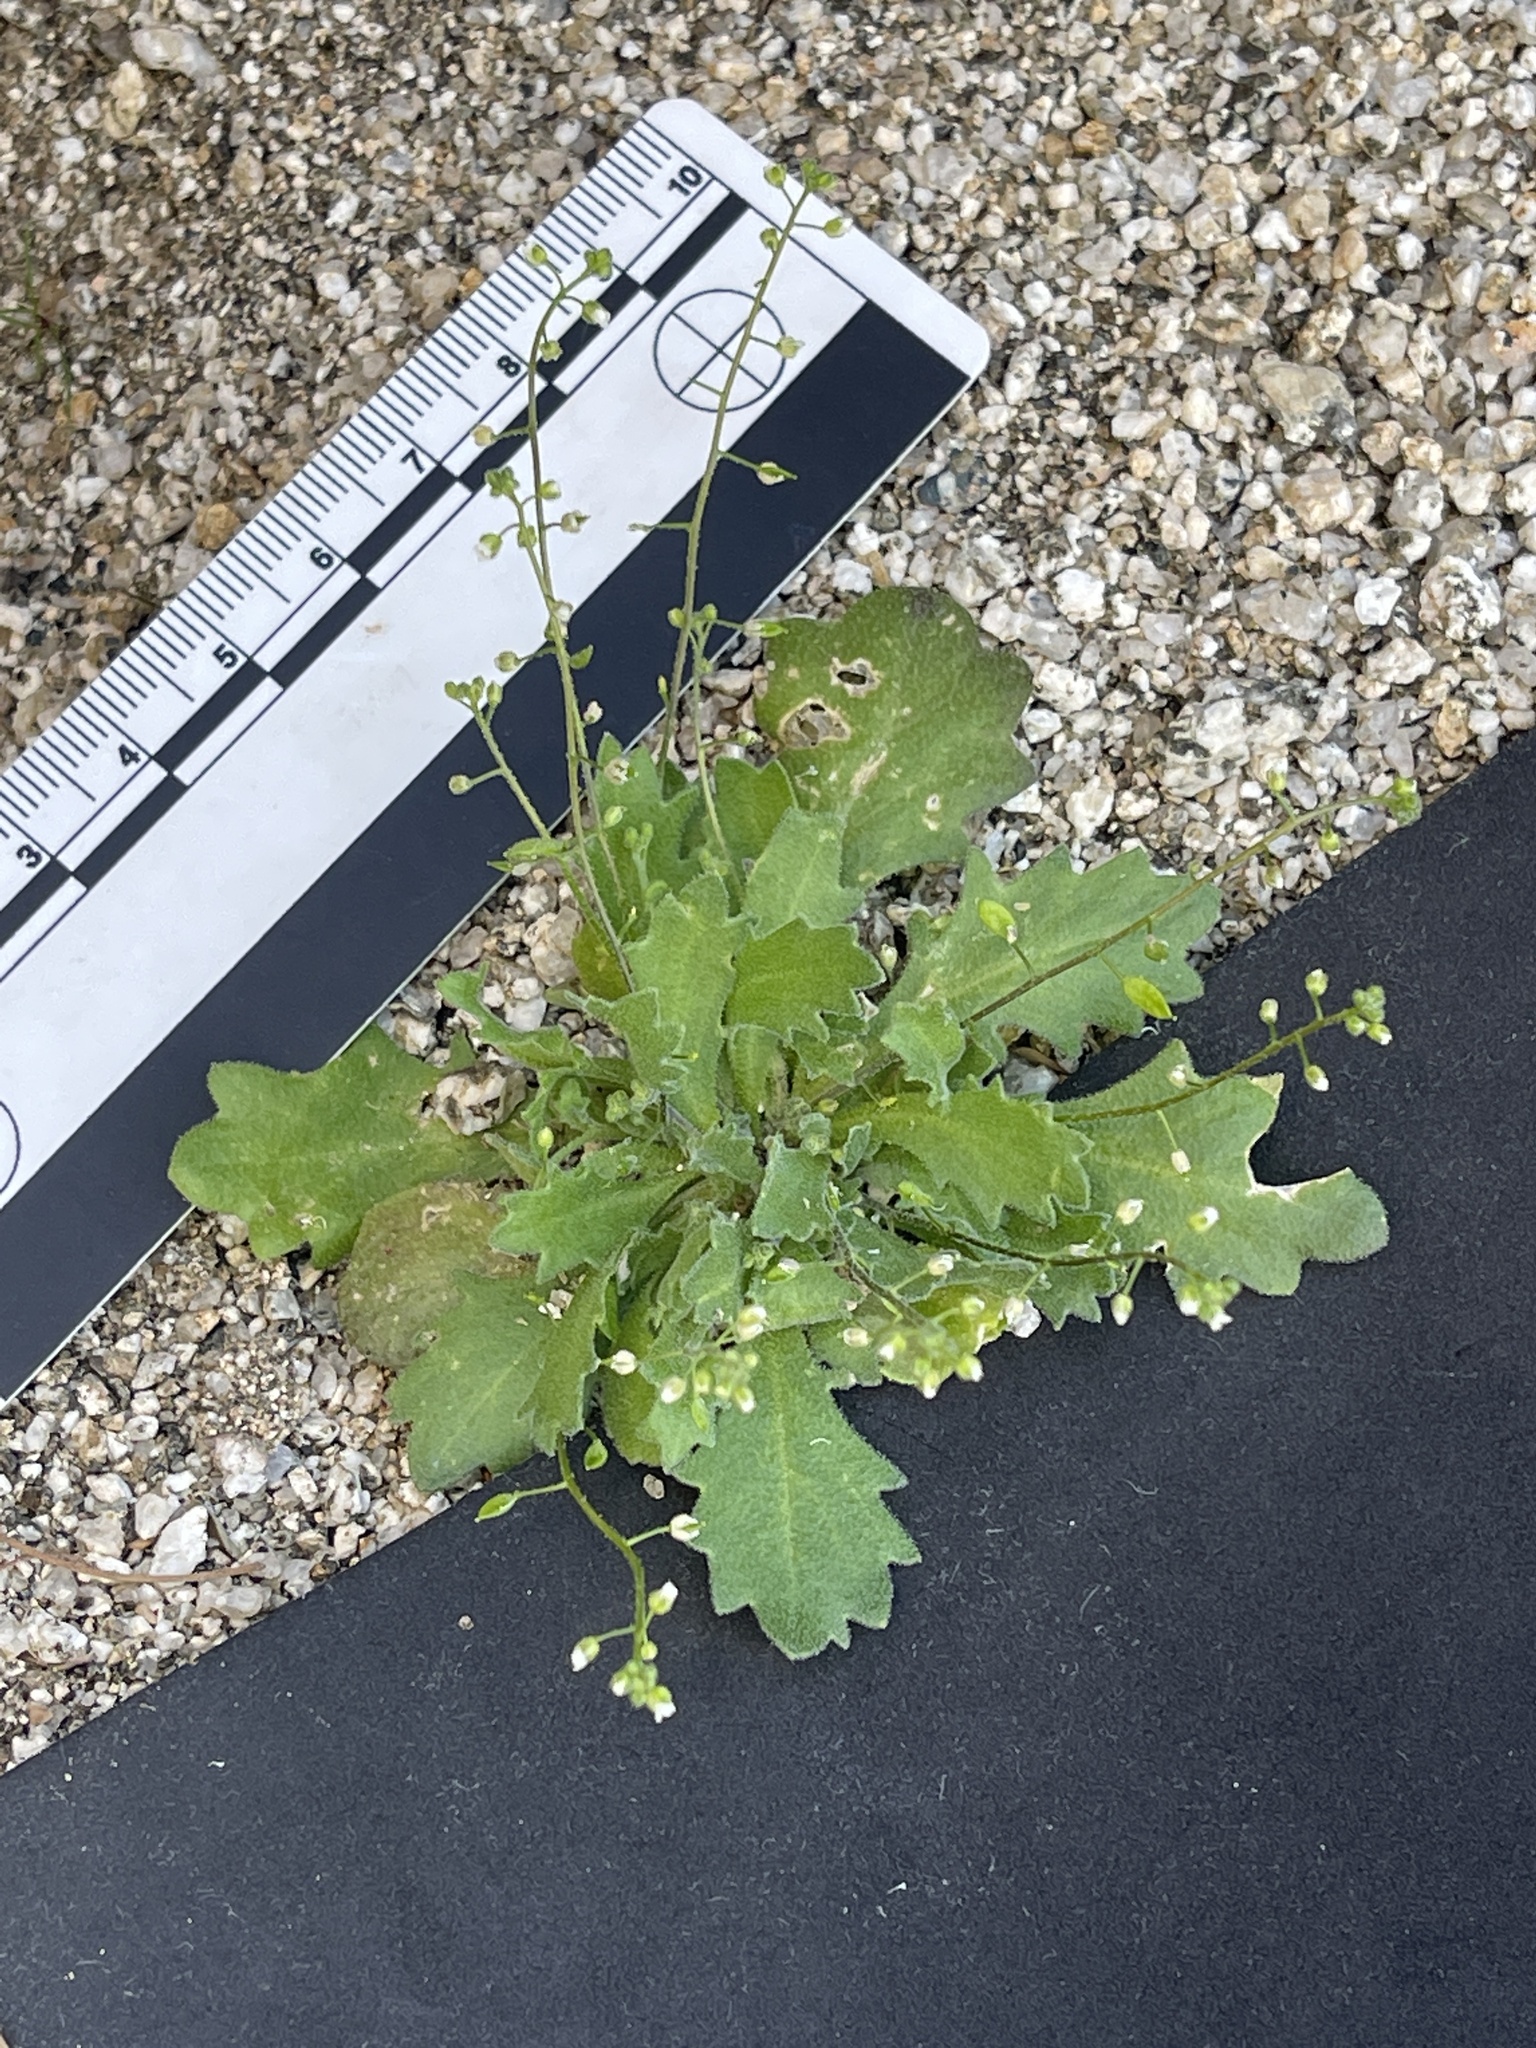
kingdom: Plantae
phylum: Tracheophyta
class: Magnoliopsida
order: Brassicales
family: Brassicaceae
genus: Tomostima
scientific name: Tomostima cuneifolia
